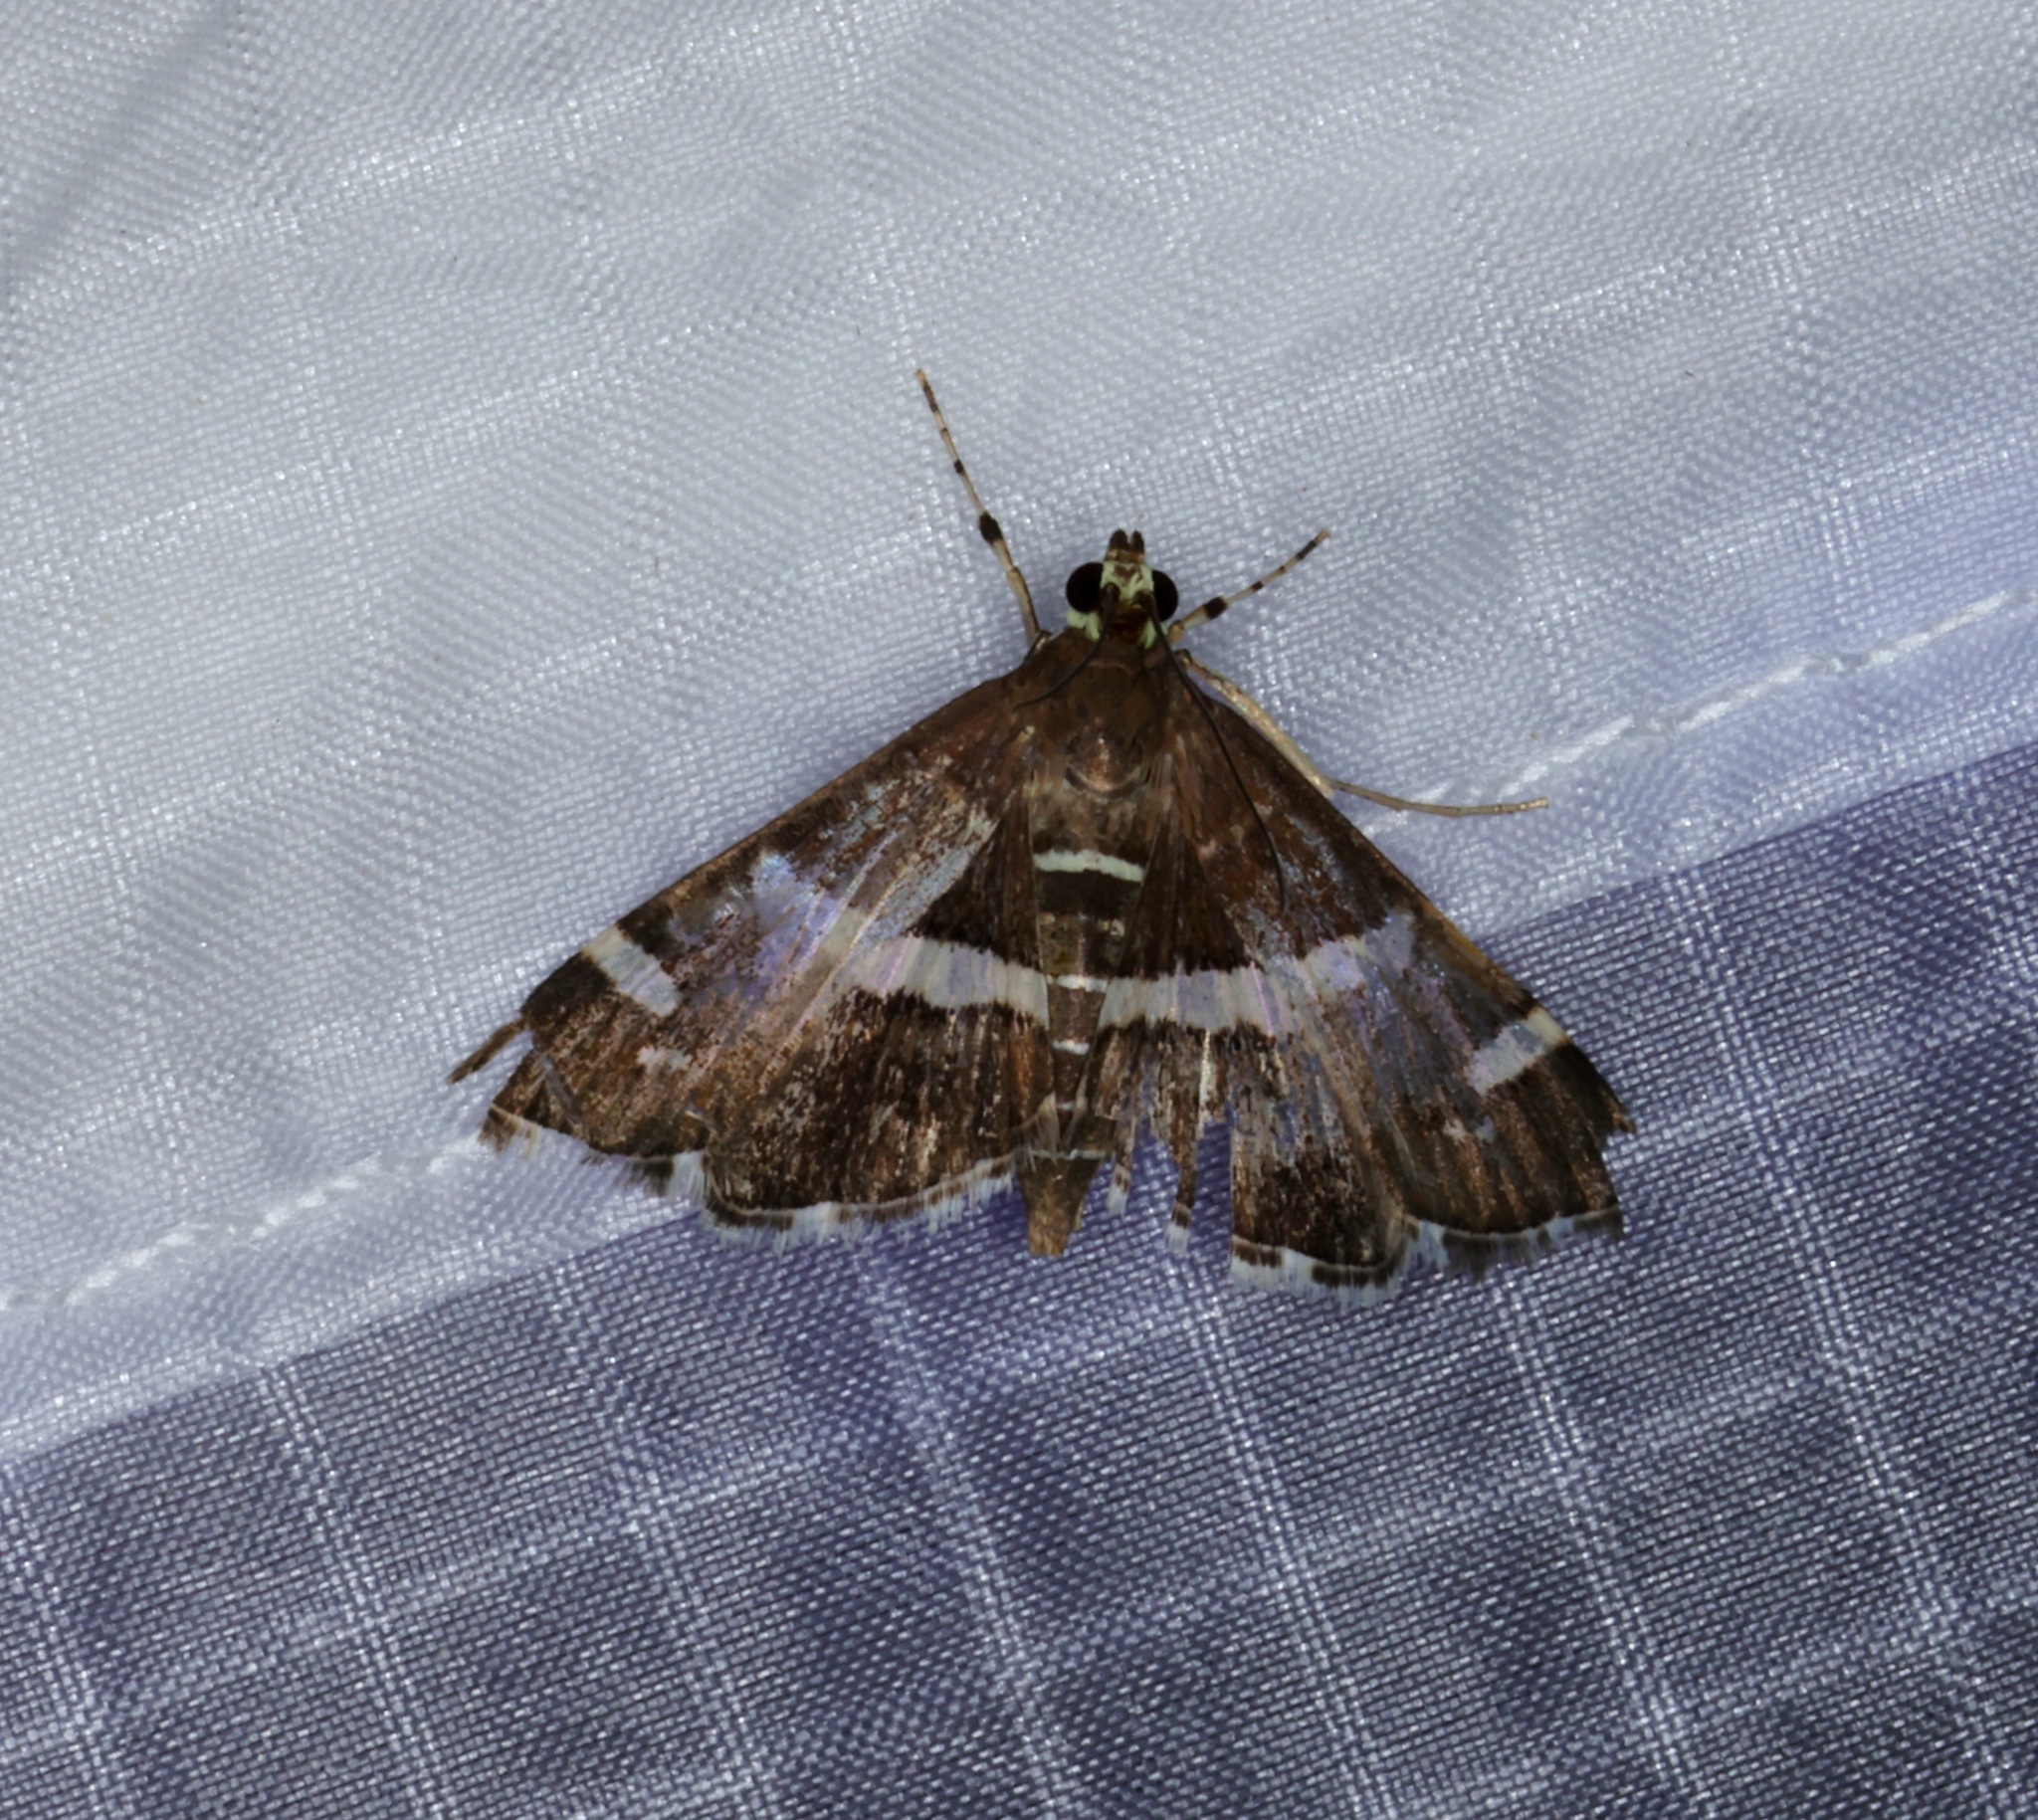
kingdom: Animalia
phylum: Arthropoda
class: Insecta
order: Lepidoptera
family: Crambidae
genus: Spoladea
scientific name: Spoladea recurvalis
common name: Beet webworm moth
